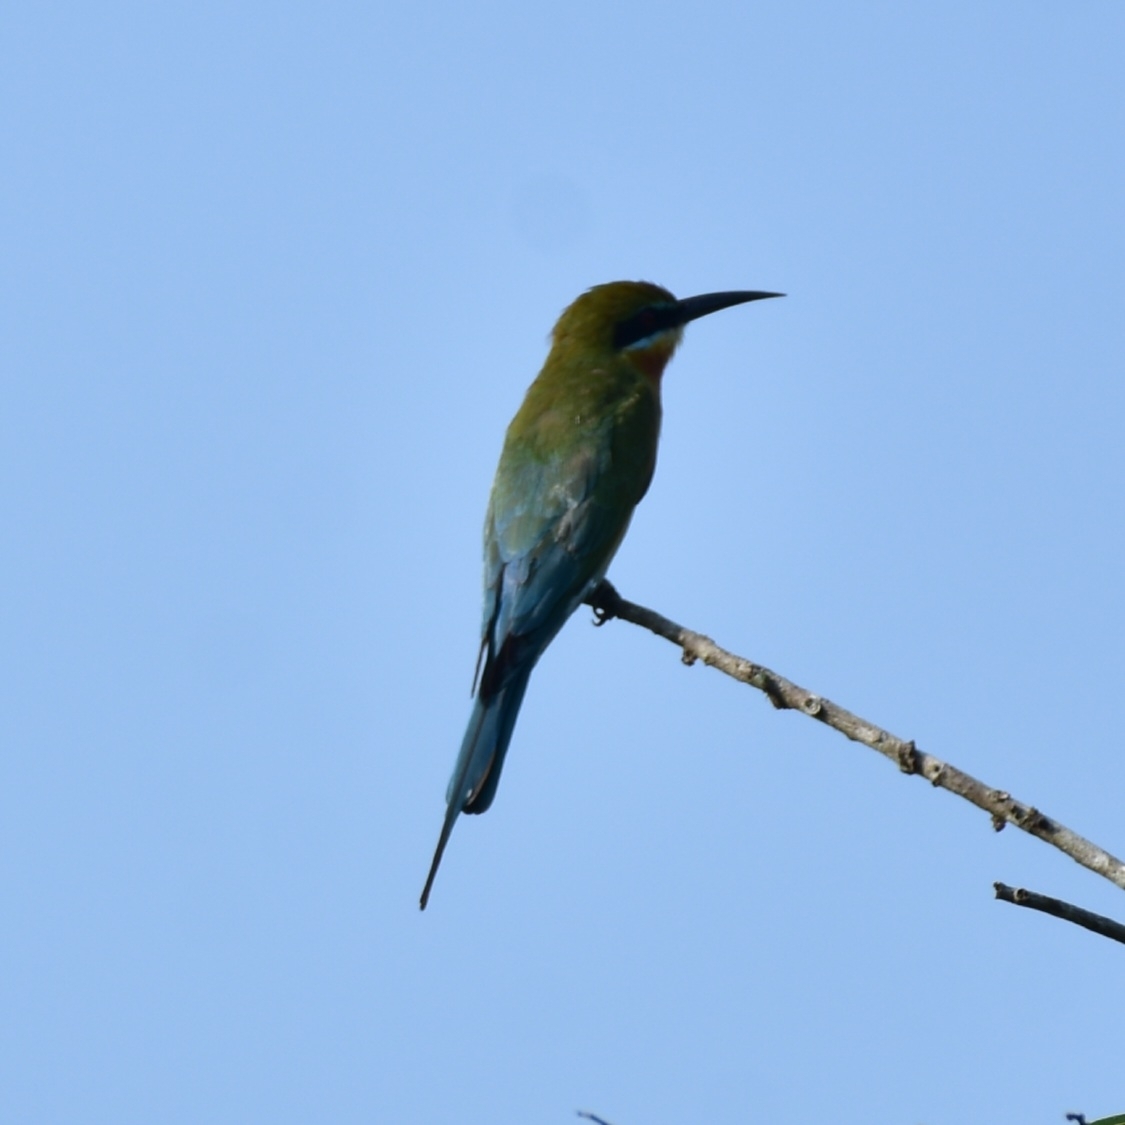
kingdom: Animalia
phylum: Chordata
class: Aves
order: Coraciiformes
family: Meropidae
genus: Merops
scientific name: Merops philippinus
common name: Blue-tailed bee-eater
